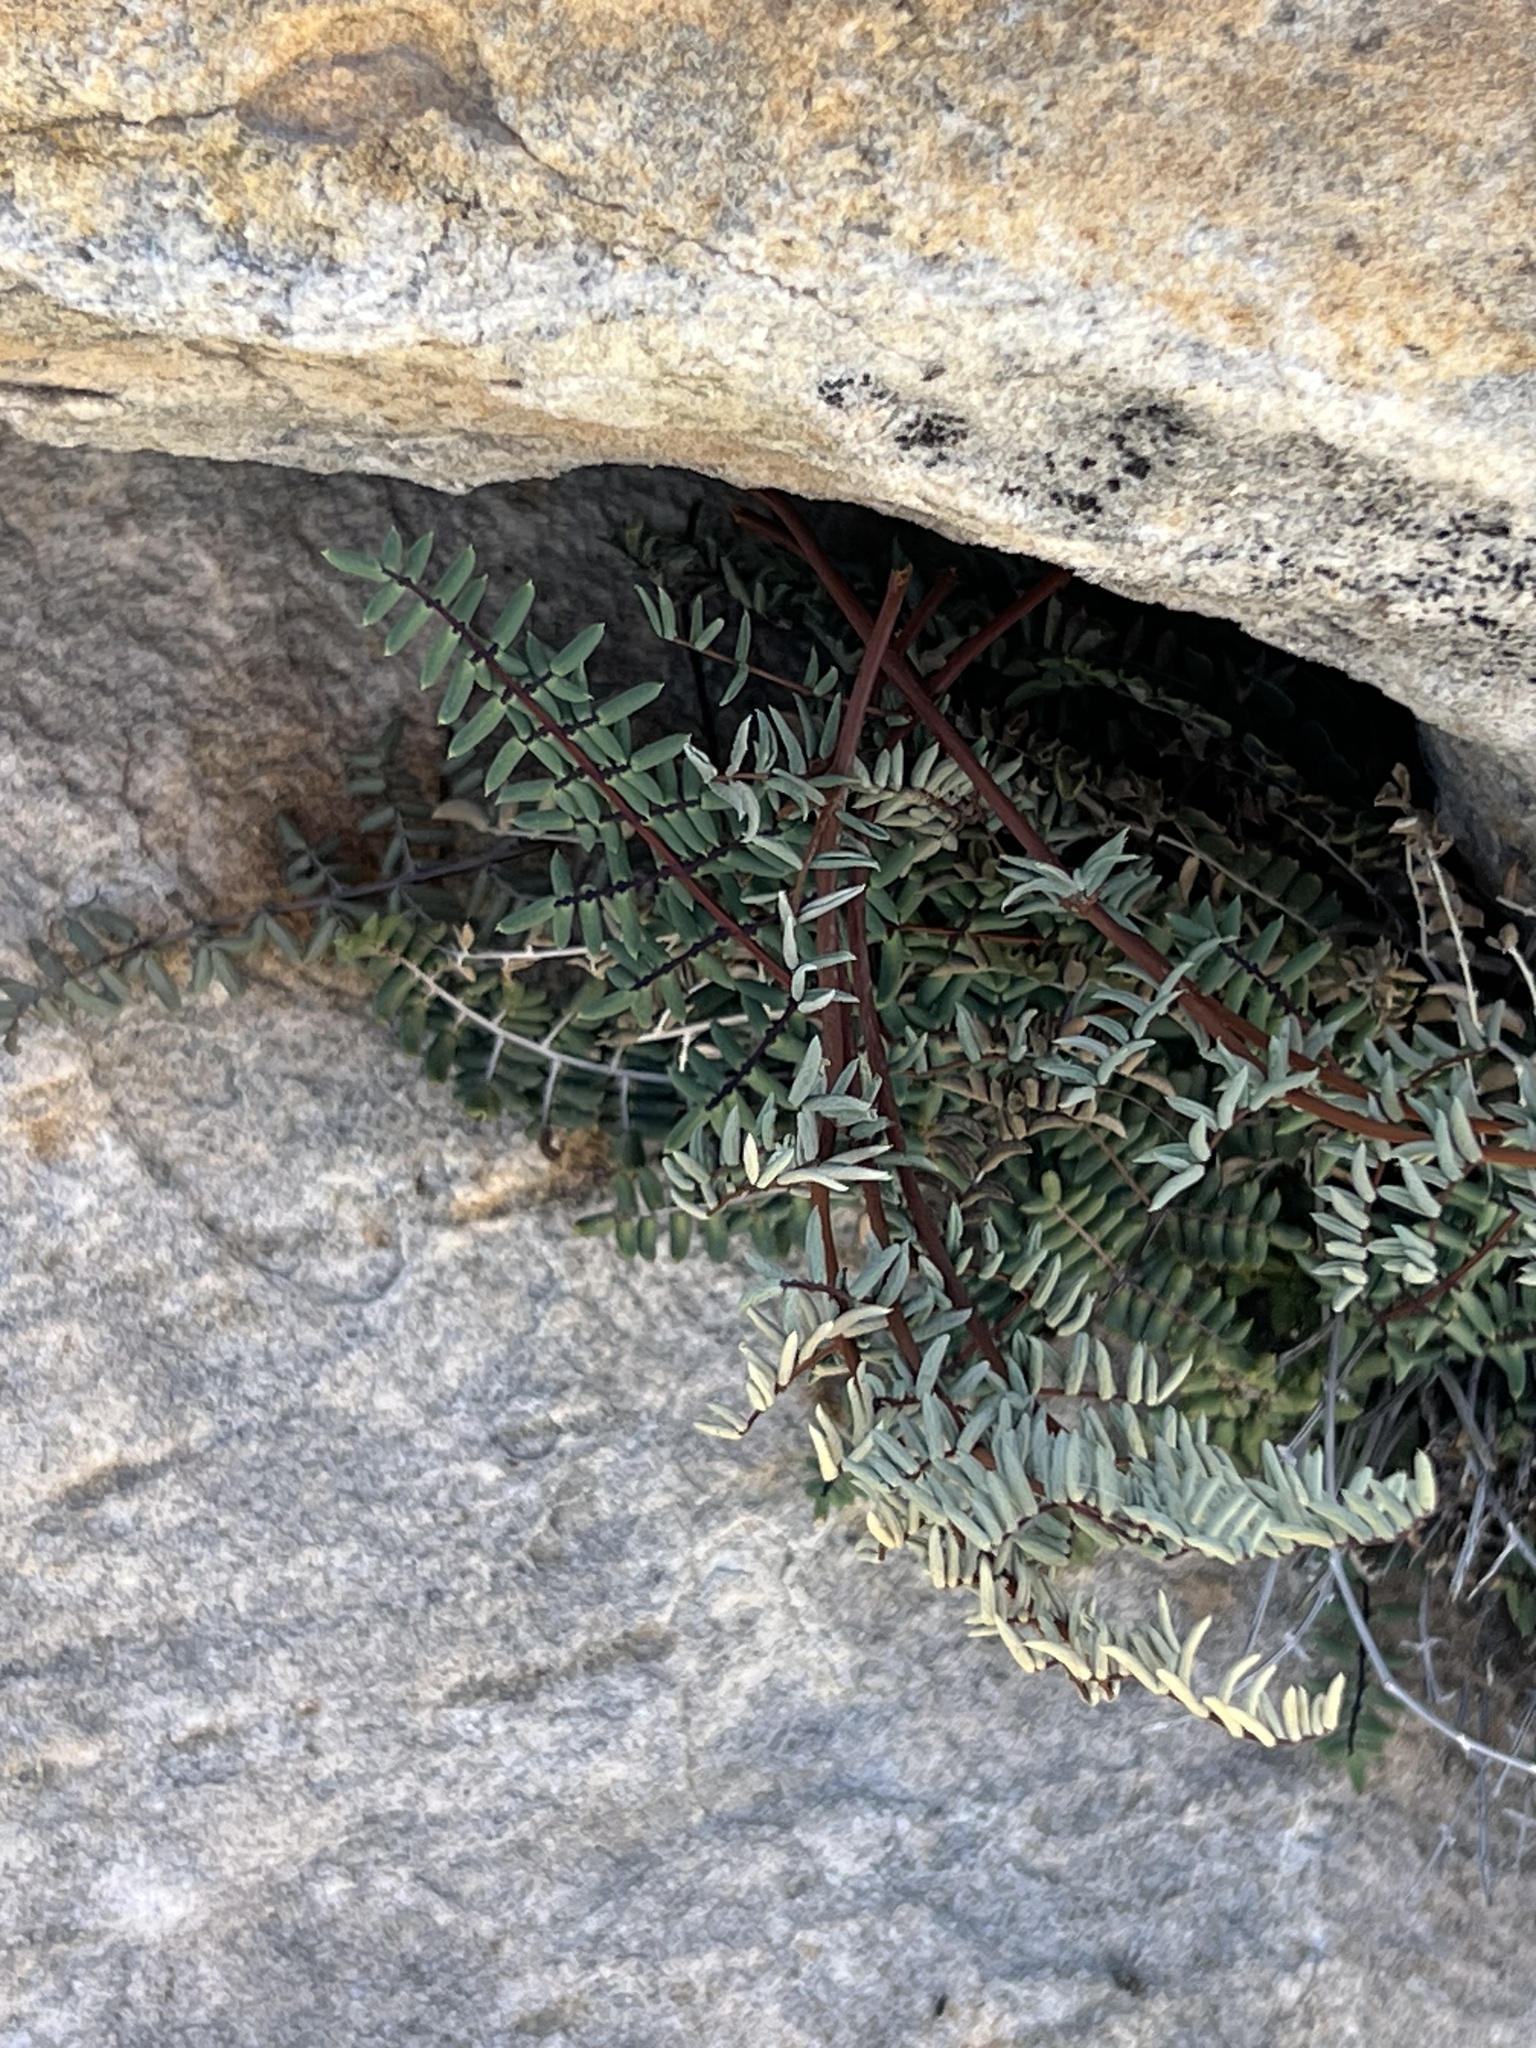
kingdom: Plantae
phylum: Tracheophyta
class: Polypodiopsida
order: Polypodiales
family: Pteridaceae
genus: Pellaea
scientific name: Pellaea truncata
